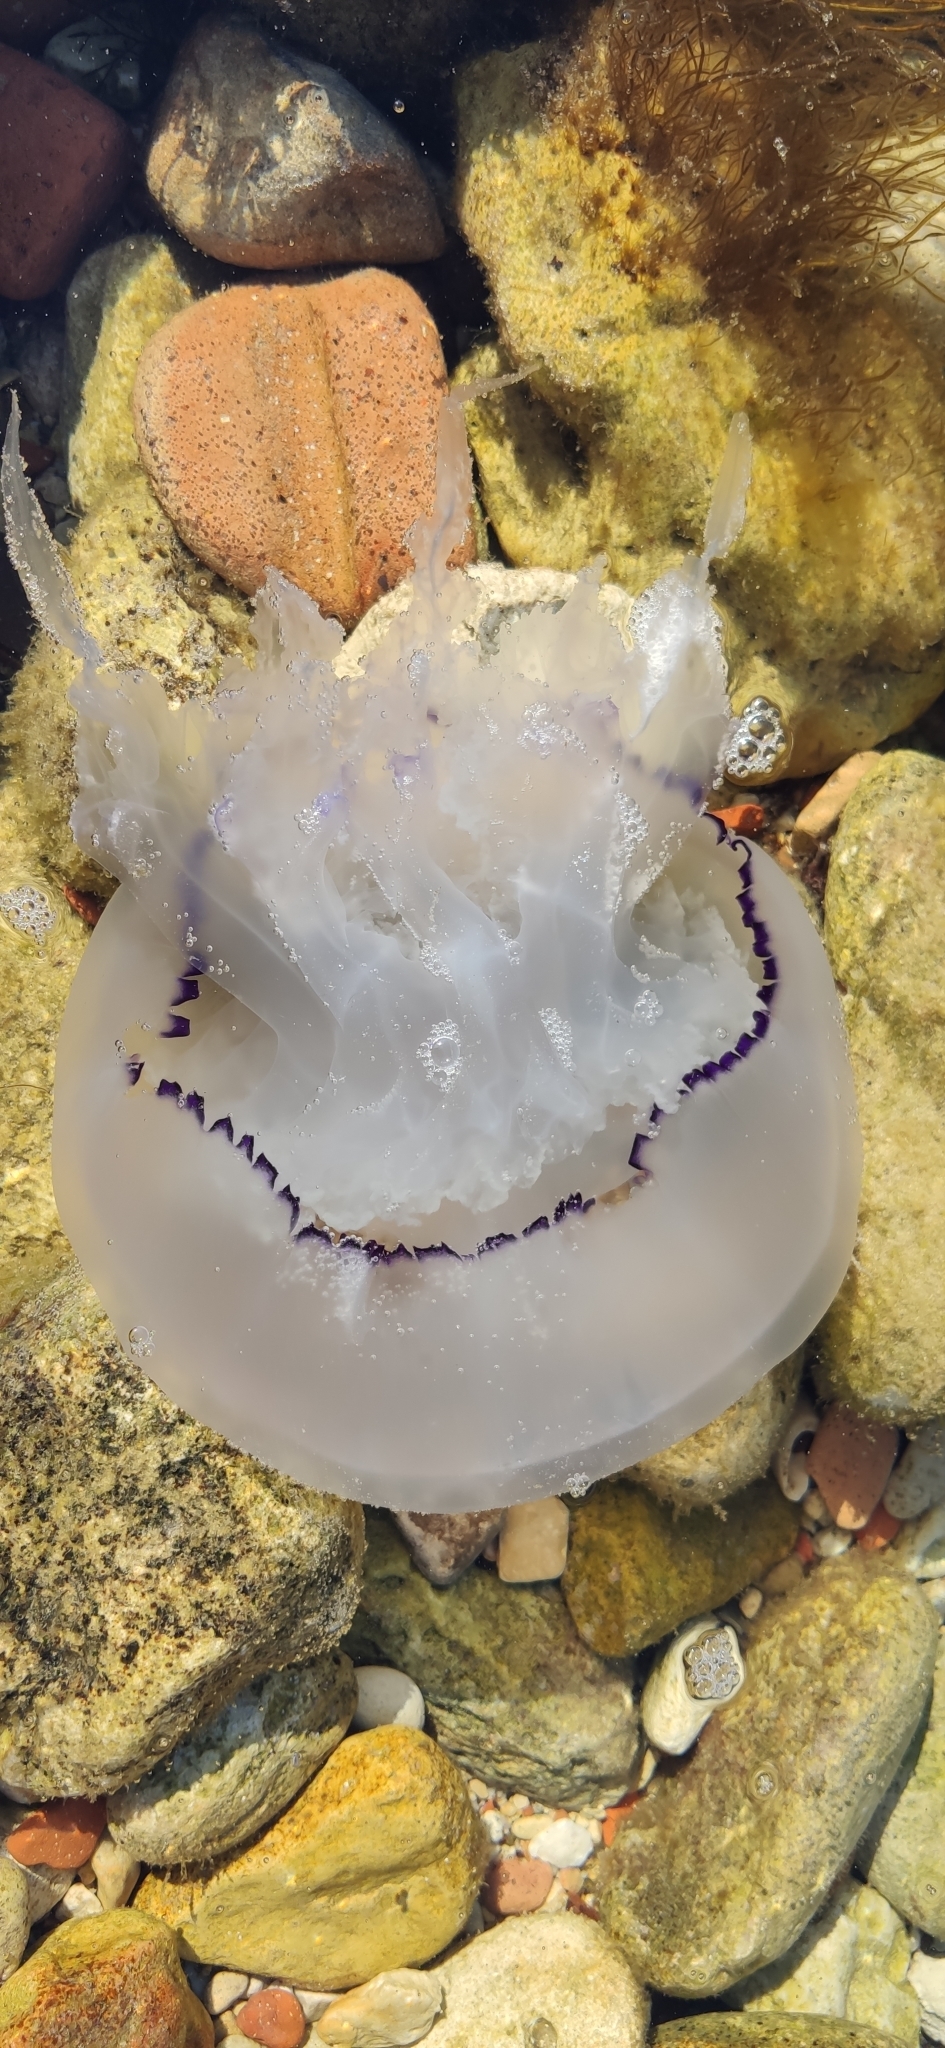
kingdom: Animalia
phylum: Cnidaria
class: Scyphozoa
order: Rhizostomeae
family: Rhizostomatidae
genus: Rhizostoma
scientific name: Rhizostoma pulmo
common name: Barrel jellyfish
